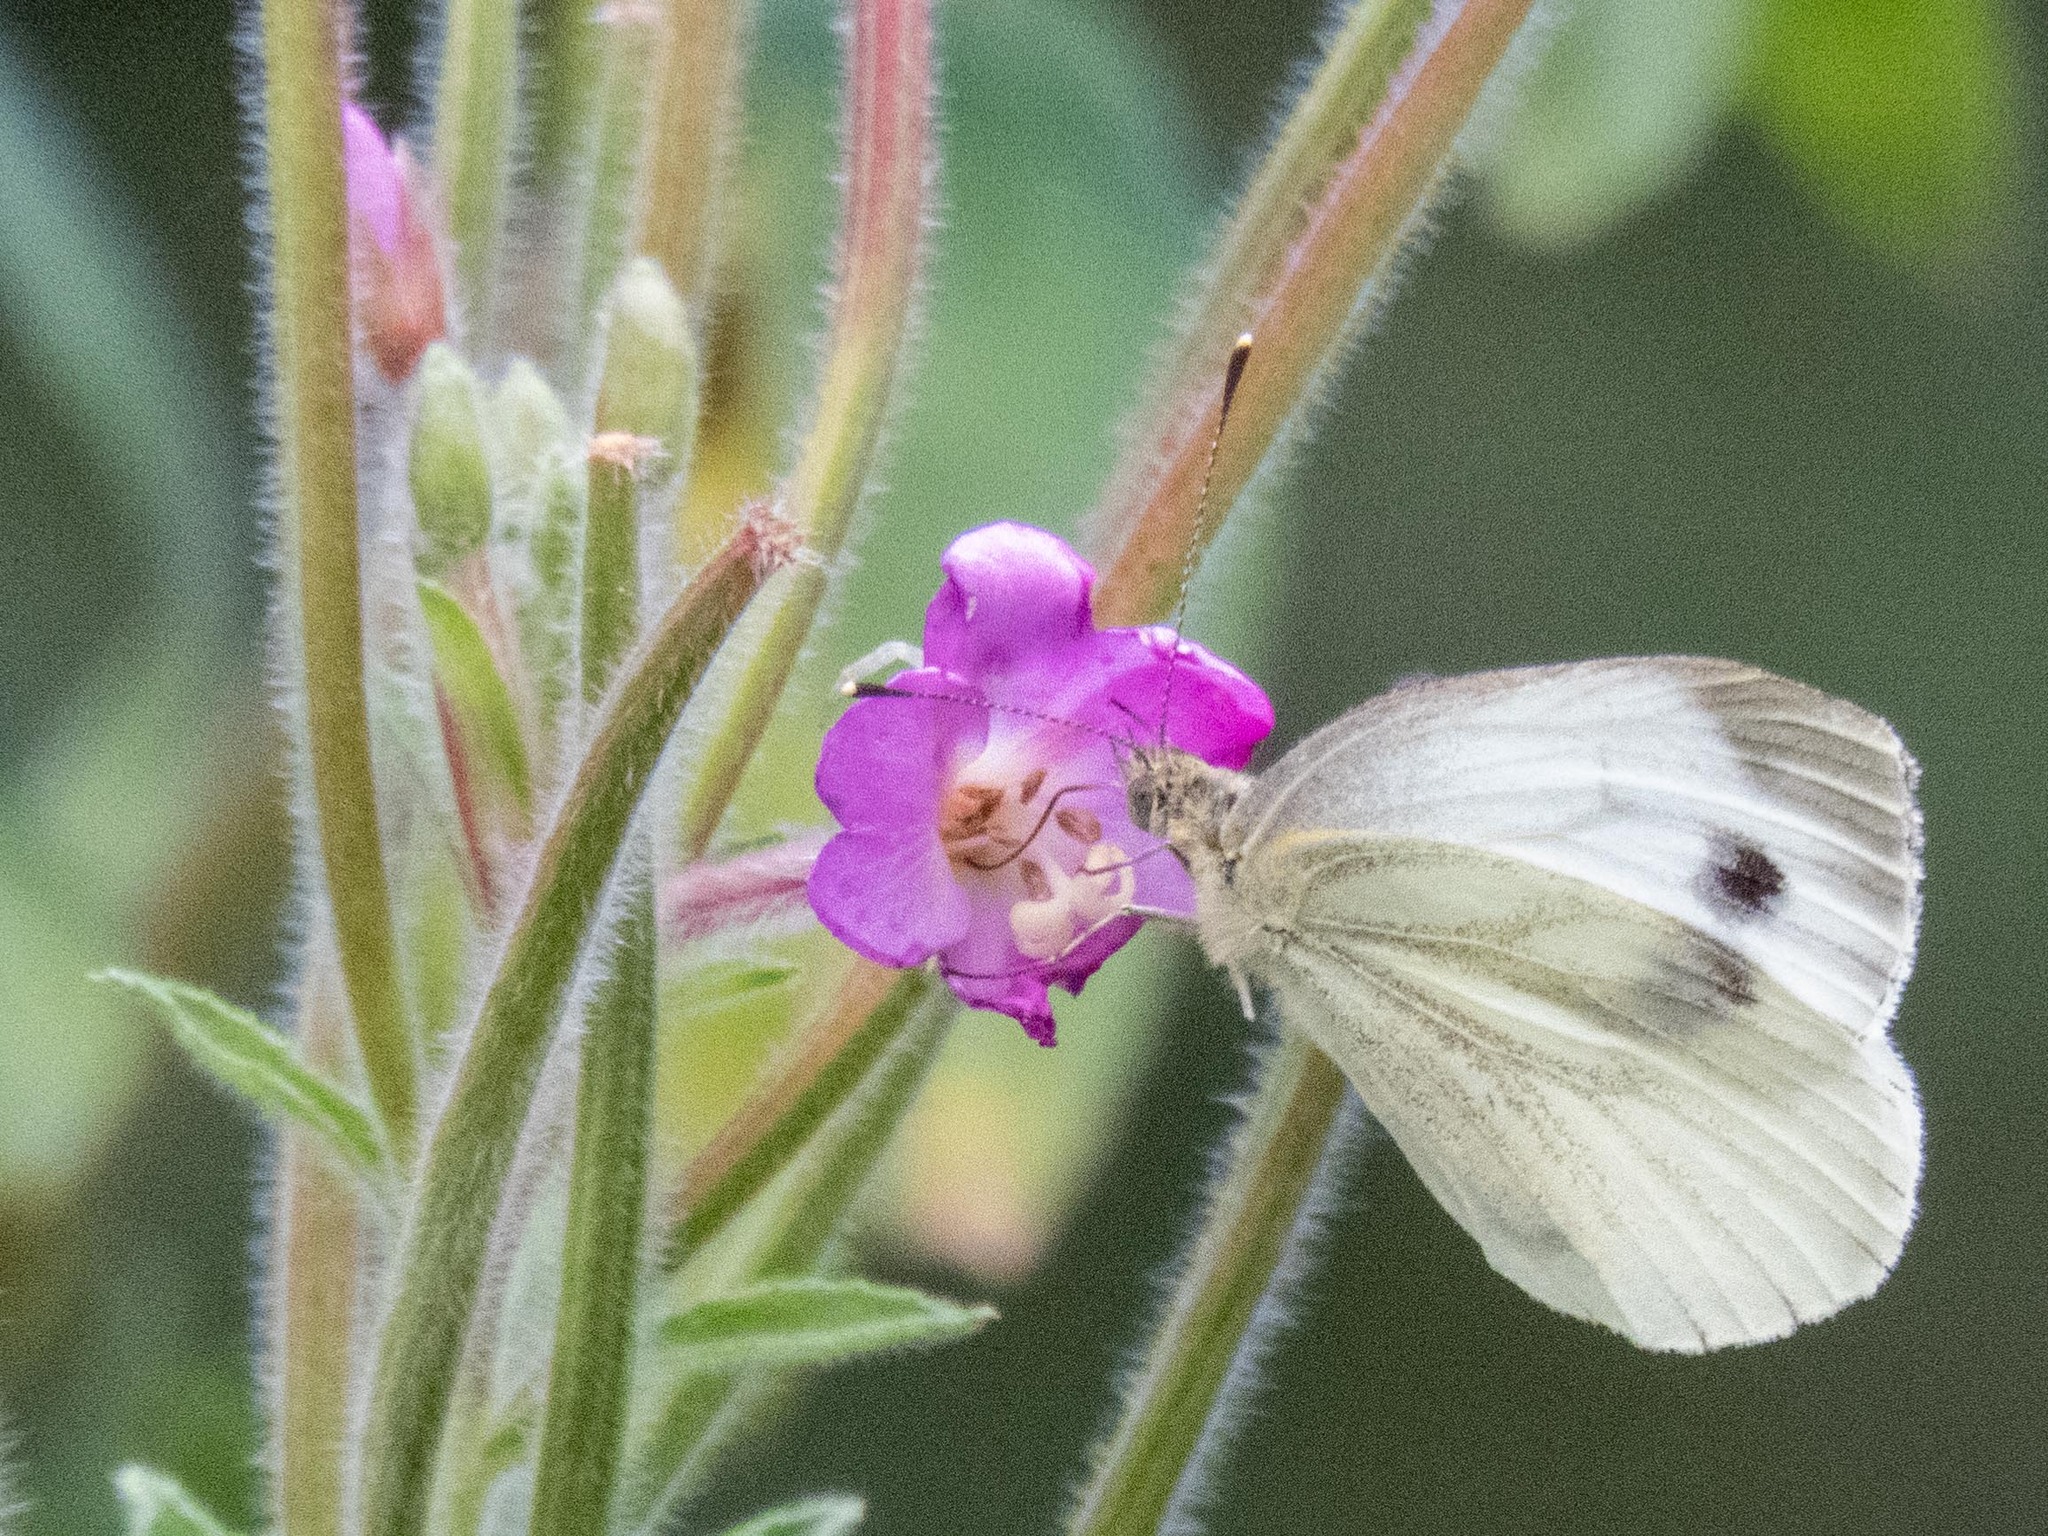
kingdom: Animalia
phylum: Arthropoda
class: Insecta
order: Lepidoptera
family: Pieridae
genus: Pieris
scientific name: Pieris napi
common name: Green-veined white
